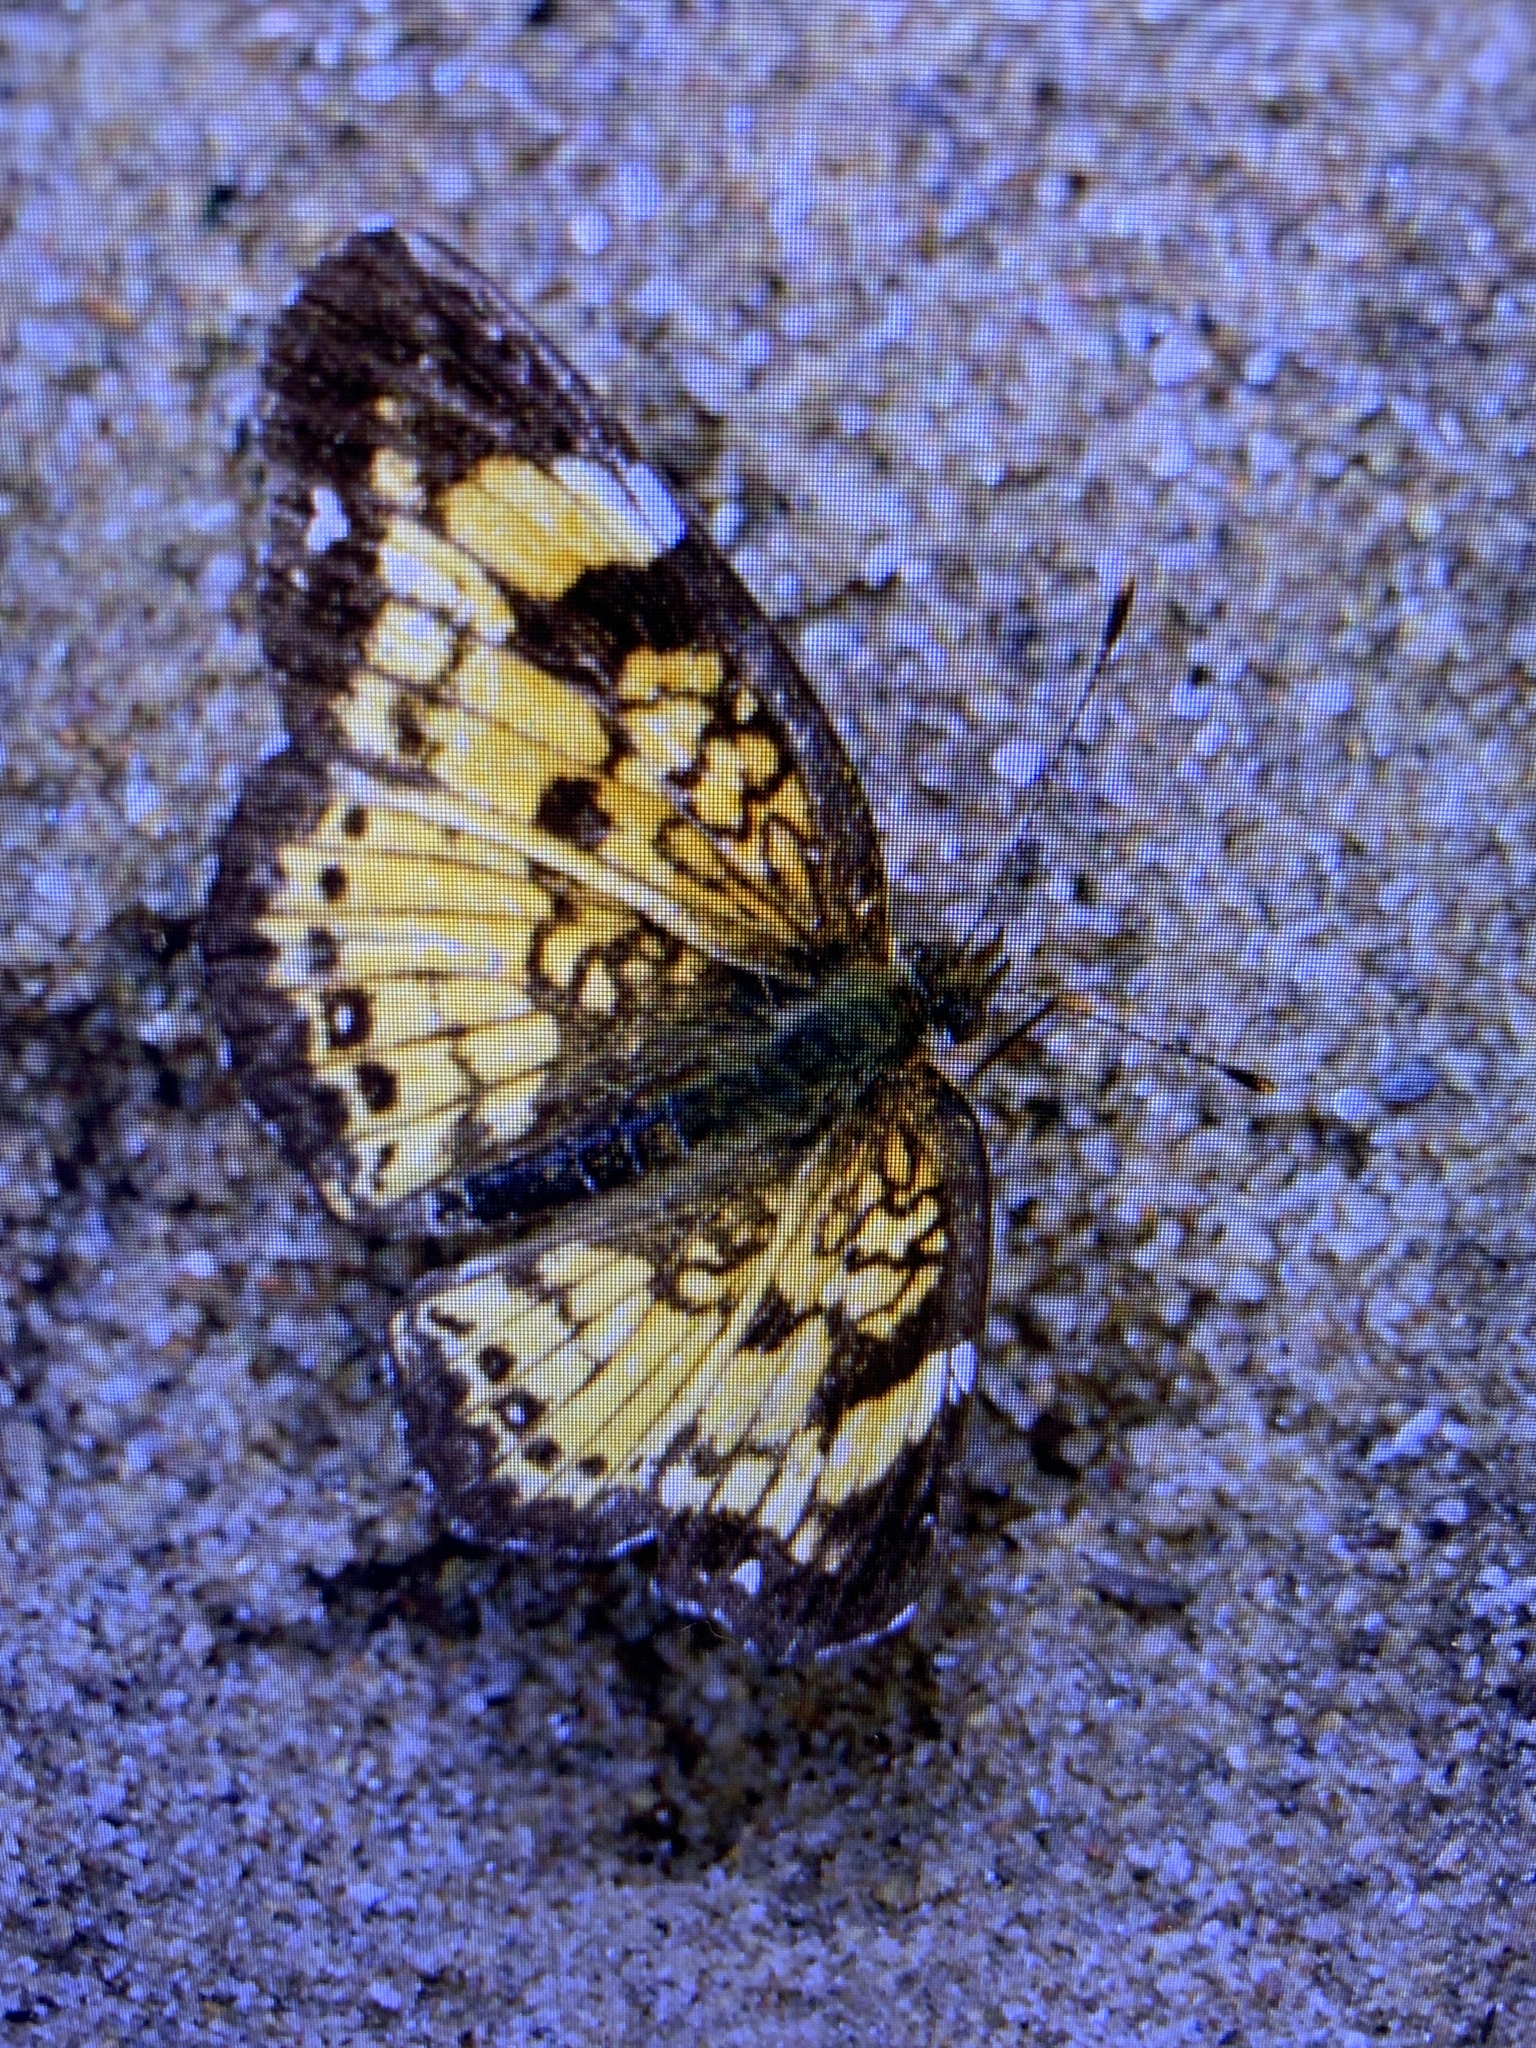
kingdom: Animalia
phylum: Arthropoda
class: Insecta
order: Lepidoptera
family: Nymphalidae
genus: Chlosyne
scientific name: Chlosyne nycteis
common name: Silvery checkerspot
